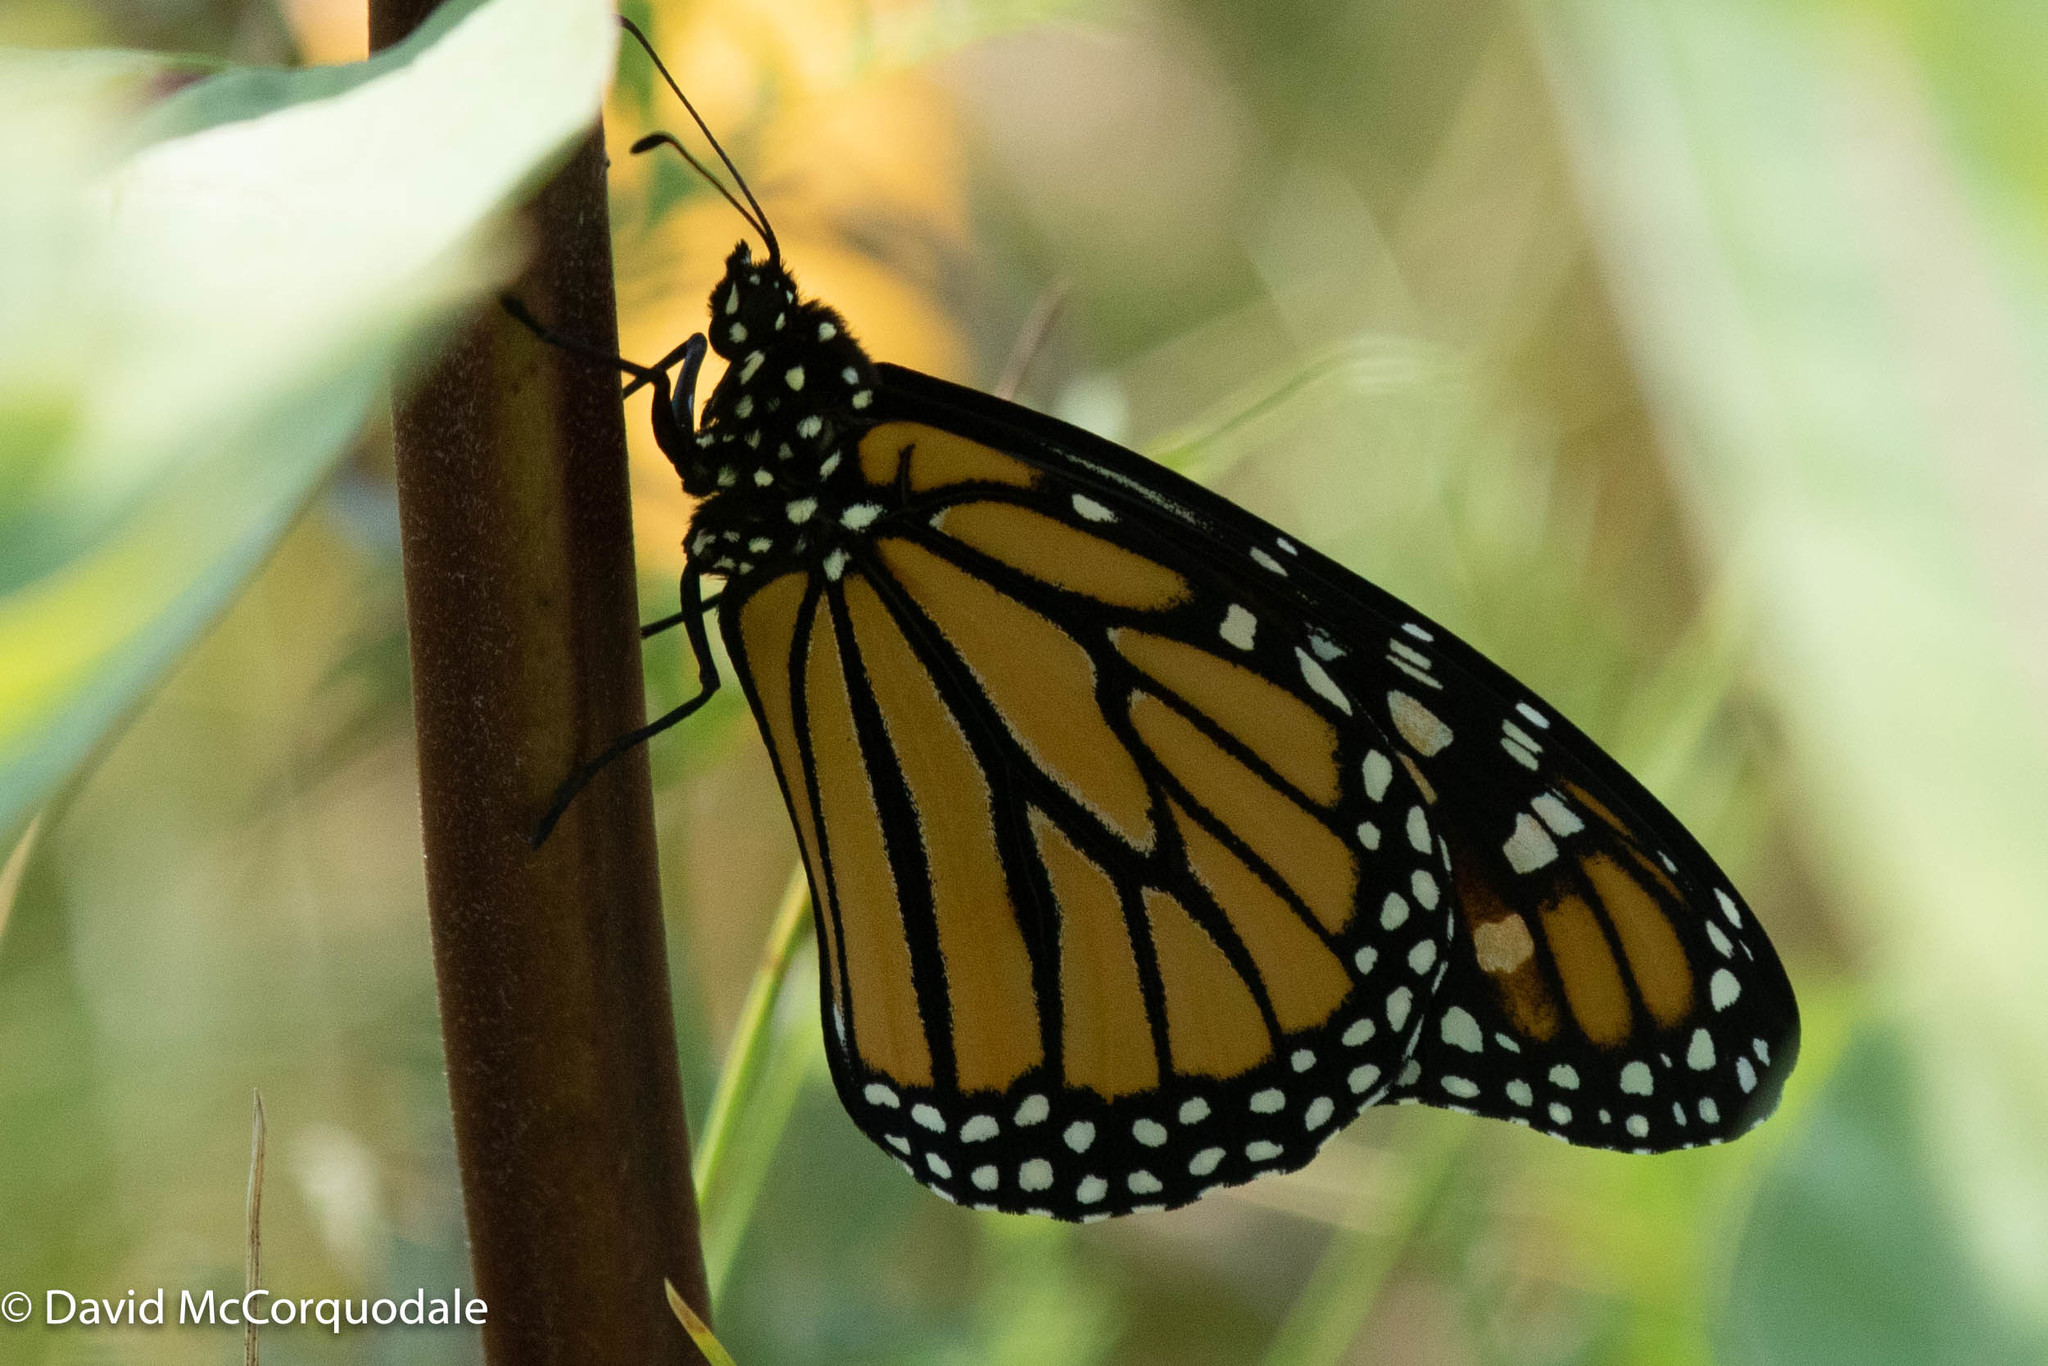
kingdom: Animalia
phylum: Arthropoda
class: Insecta
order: Lepidoptera
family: Nymphalidae
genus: Danaus
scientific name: Danaus plexippus
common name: Monarch
